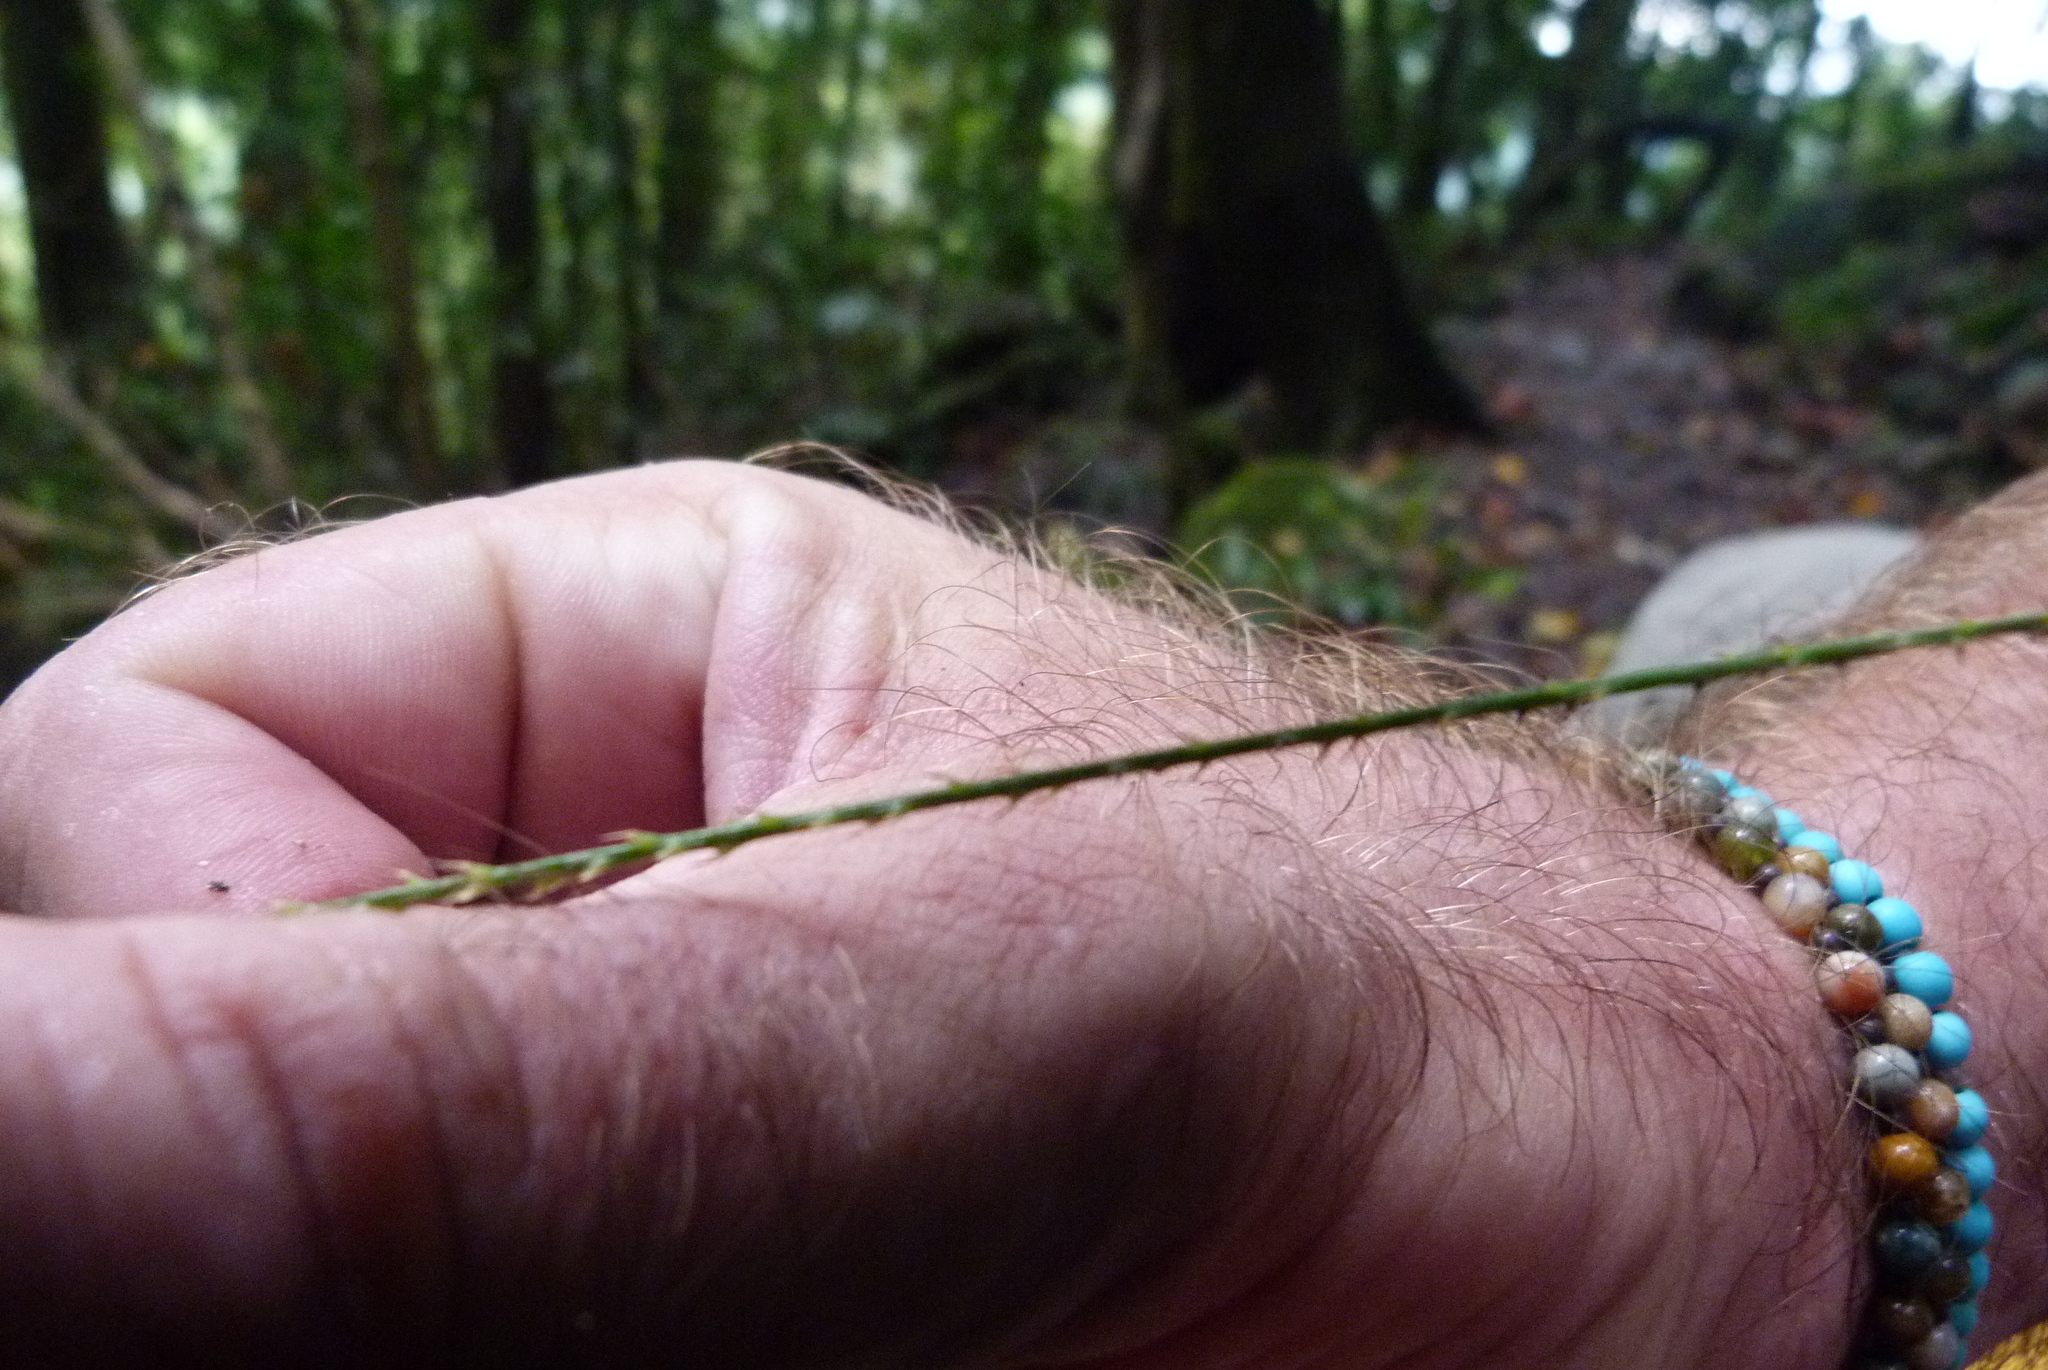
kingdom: Plantae
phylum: Tracheophyta
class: Liliopsida
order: Arecales
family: Arecaceae
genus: Calamus
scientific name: Calamus muelleri
